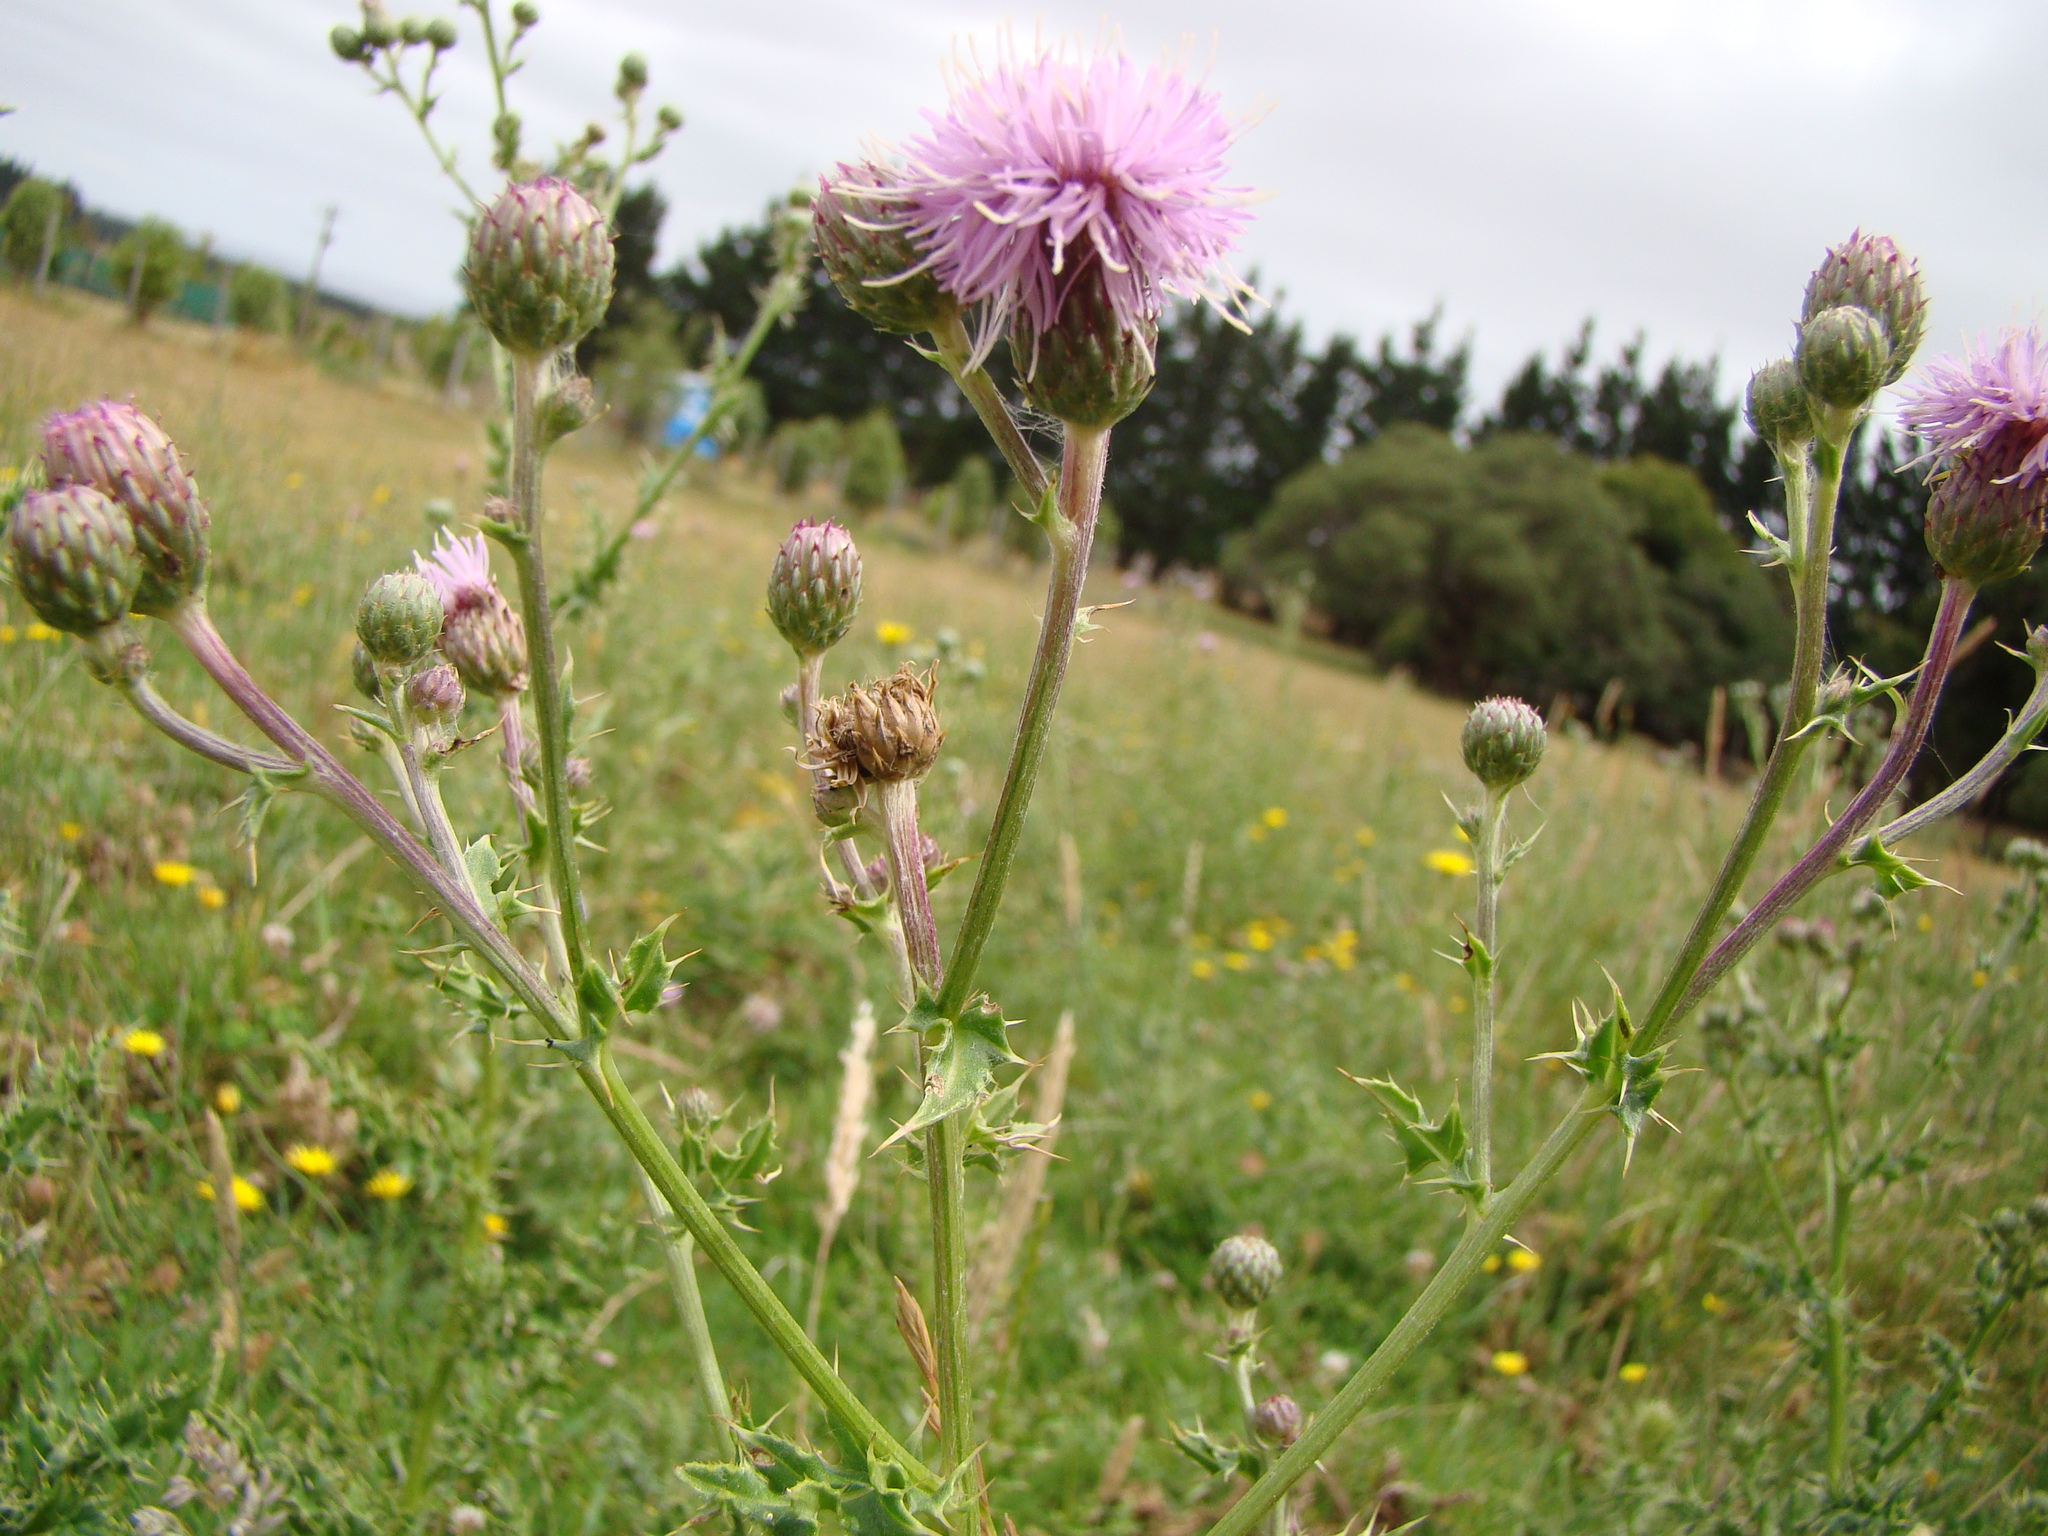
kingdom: Plantae
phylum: Tracheophyta
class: Magnoliopsida
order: Asterales
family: Asteraceae
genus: Cirsium
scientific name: Cirsium arvense
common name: Creeping thistle
